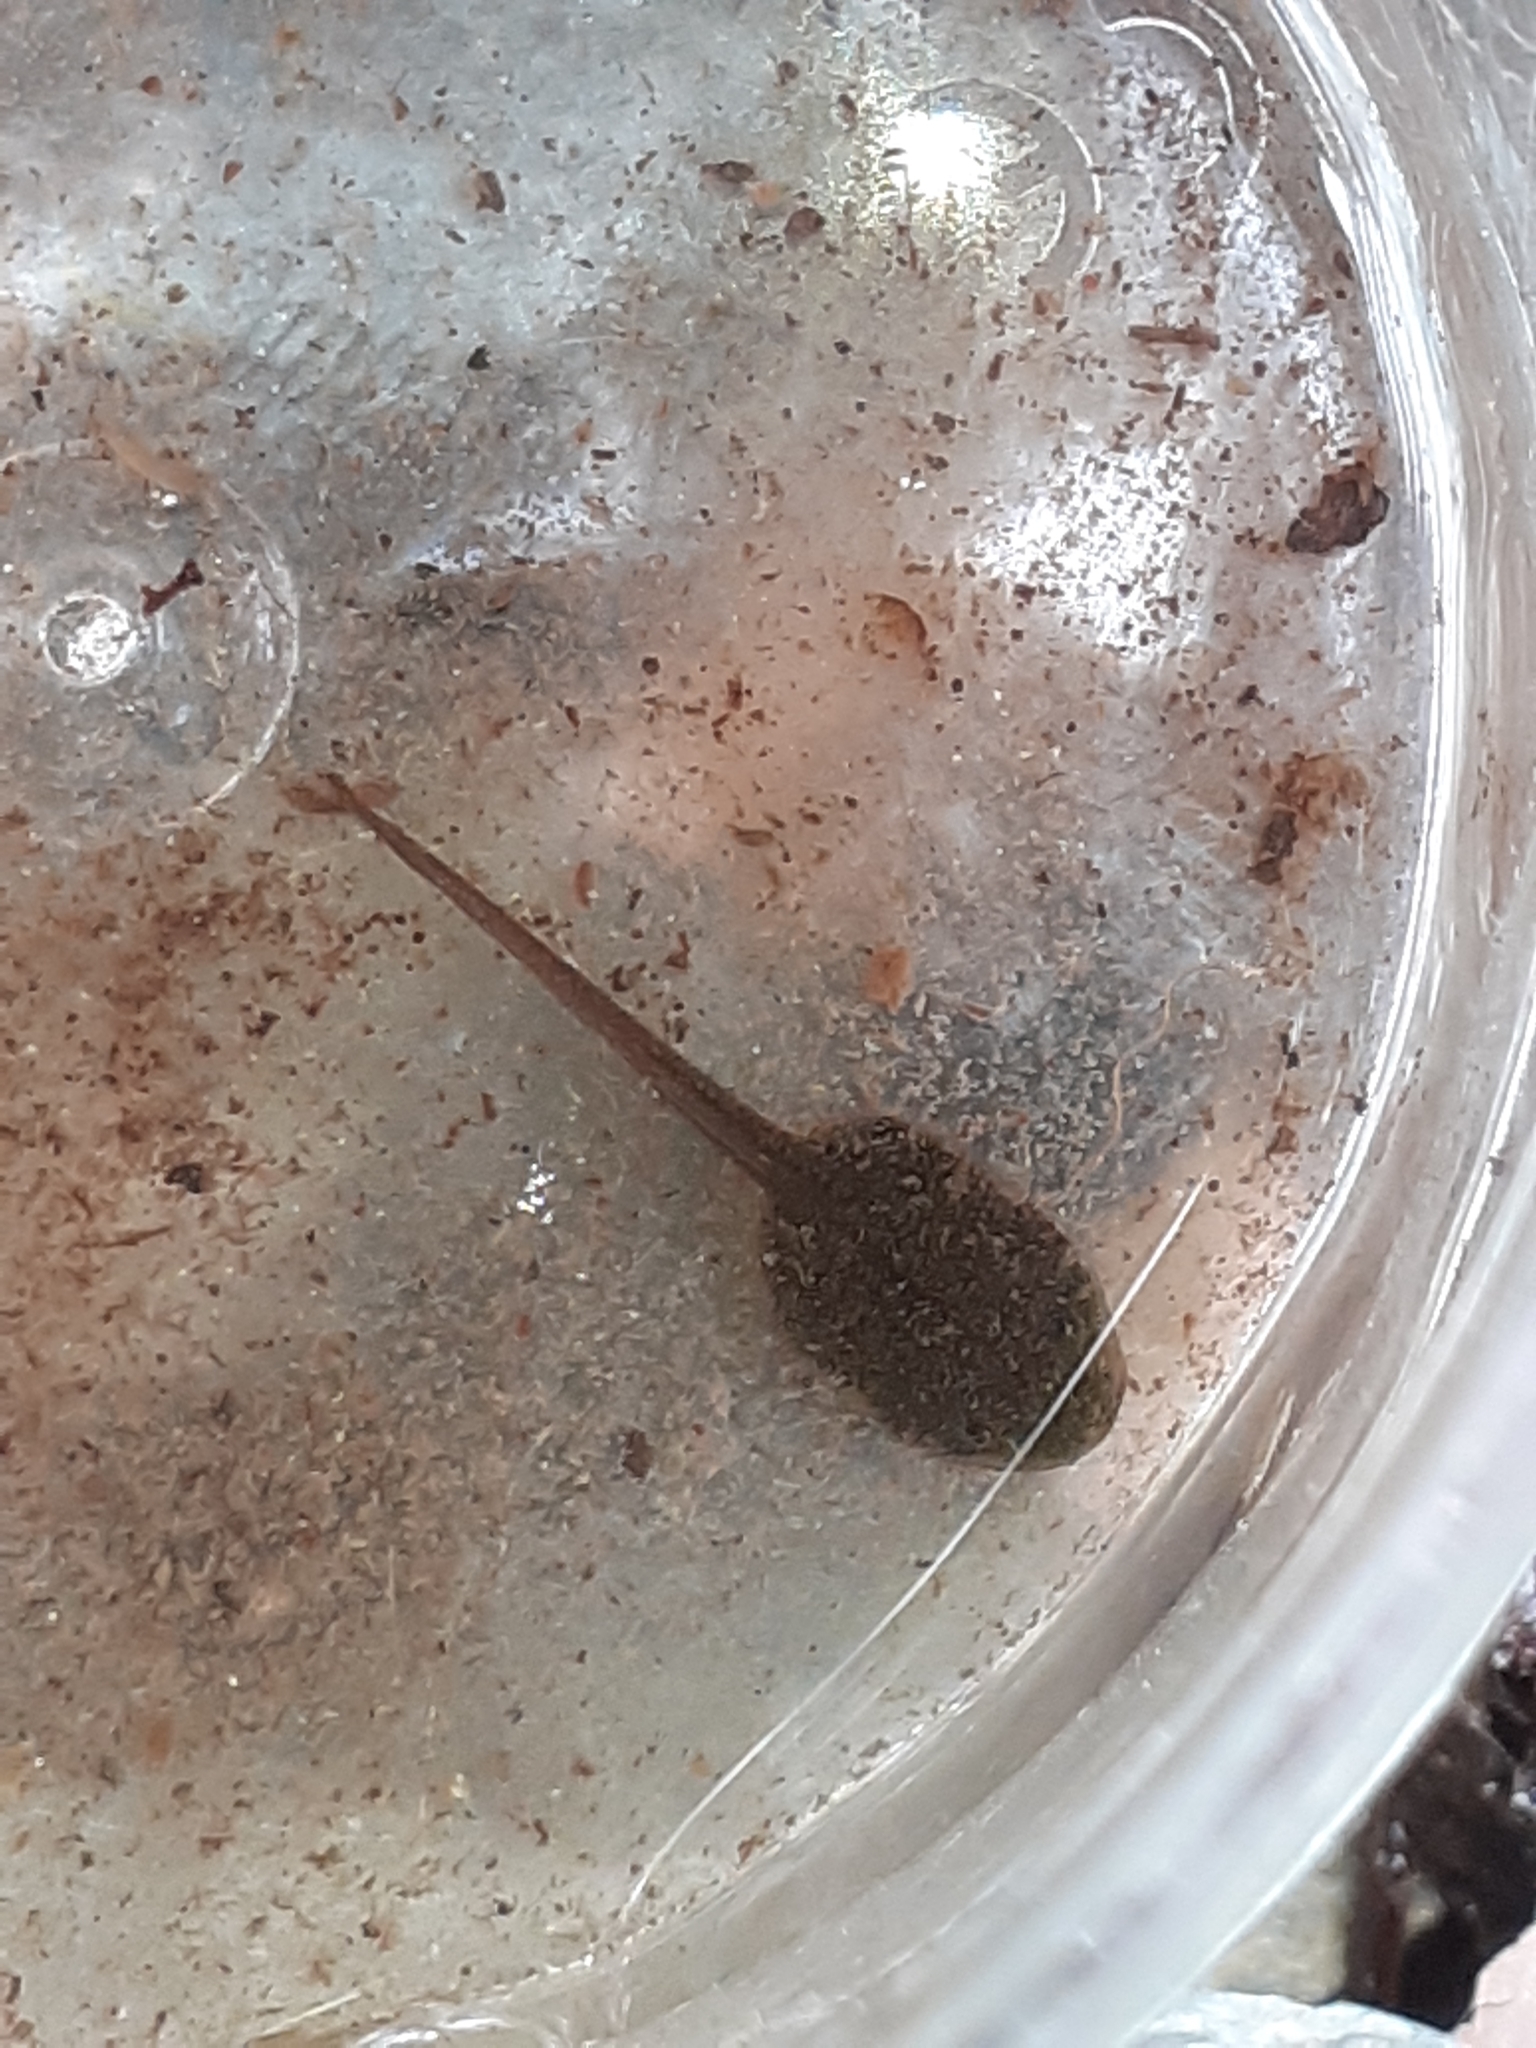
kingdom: Animalia
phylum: Chordata
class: Amphibia
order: Anura
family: Ranidae
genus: Rana
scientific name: Rana temporaria
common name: Common frog
